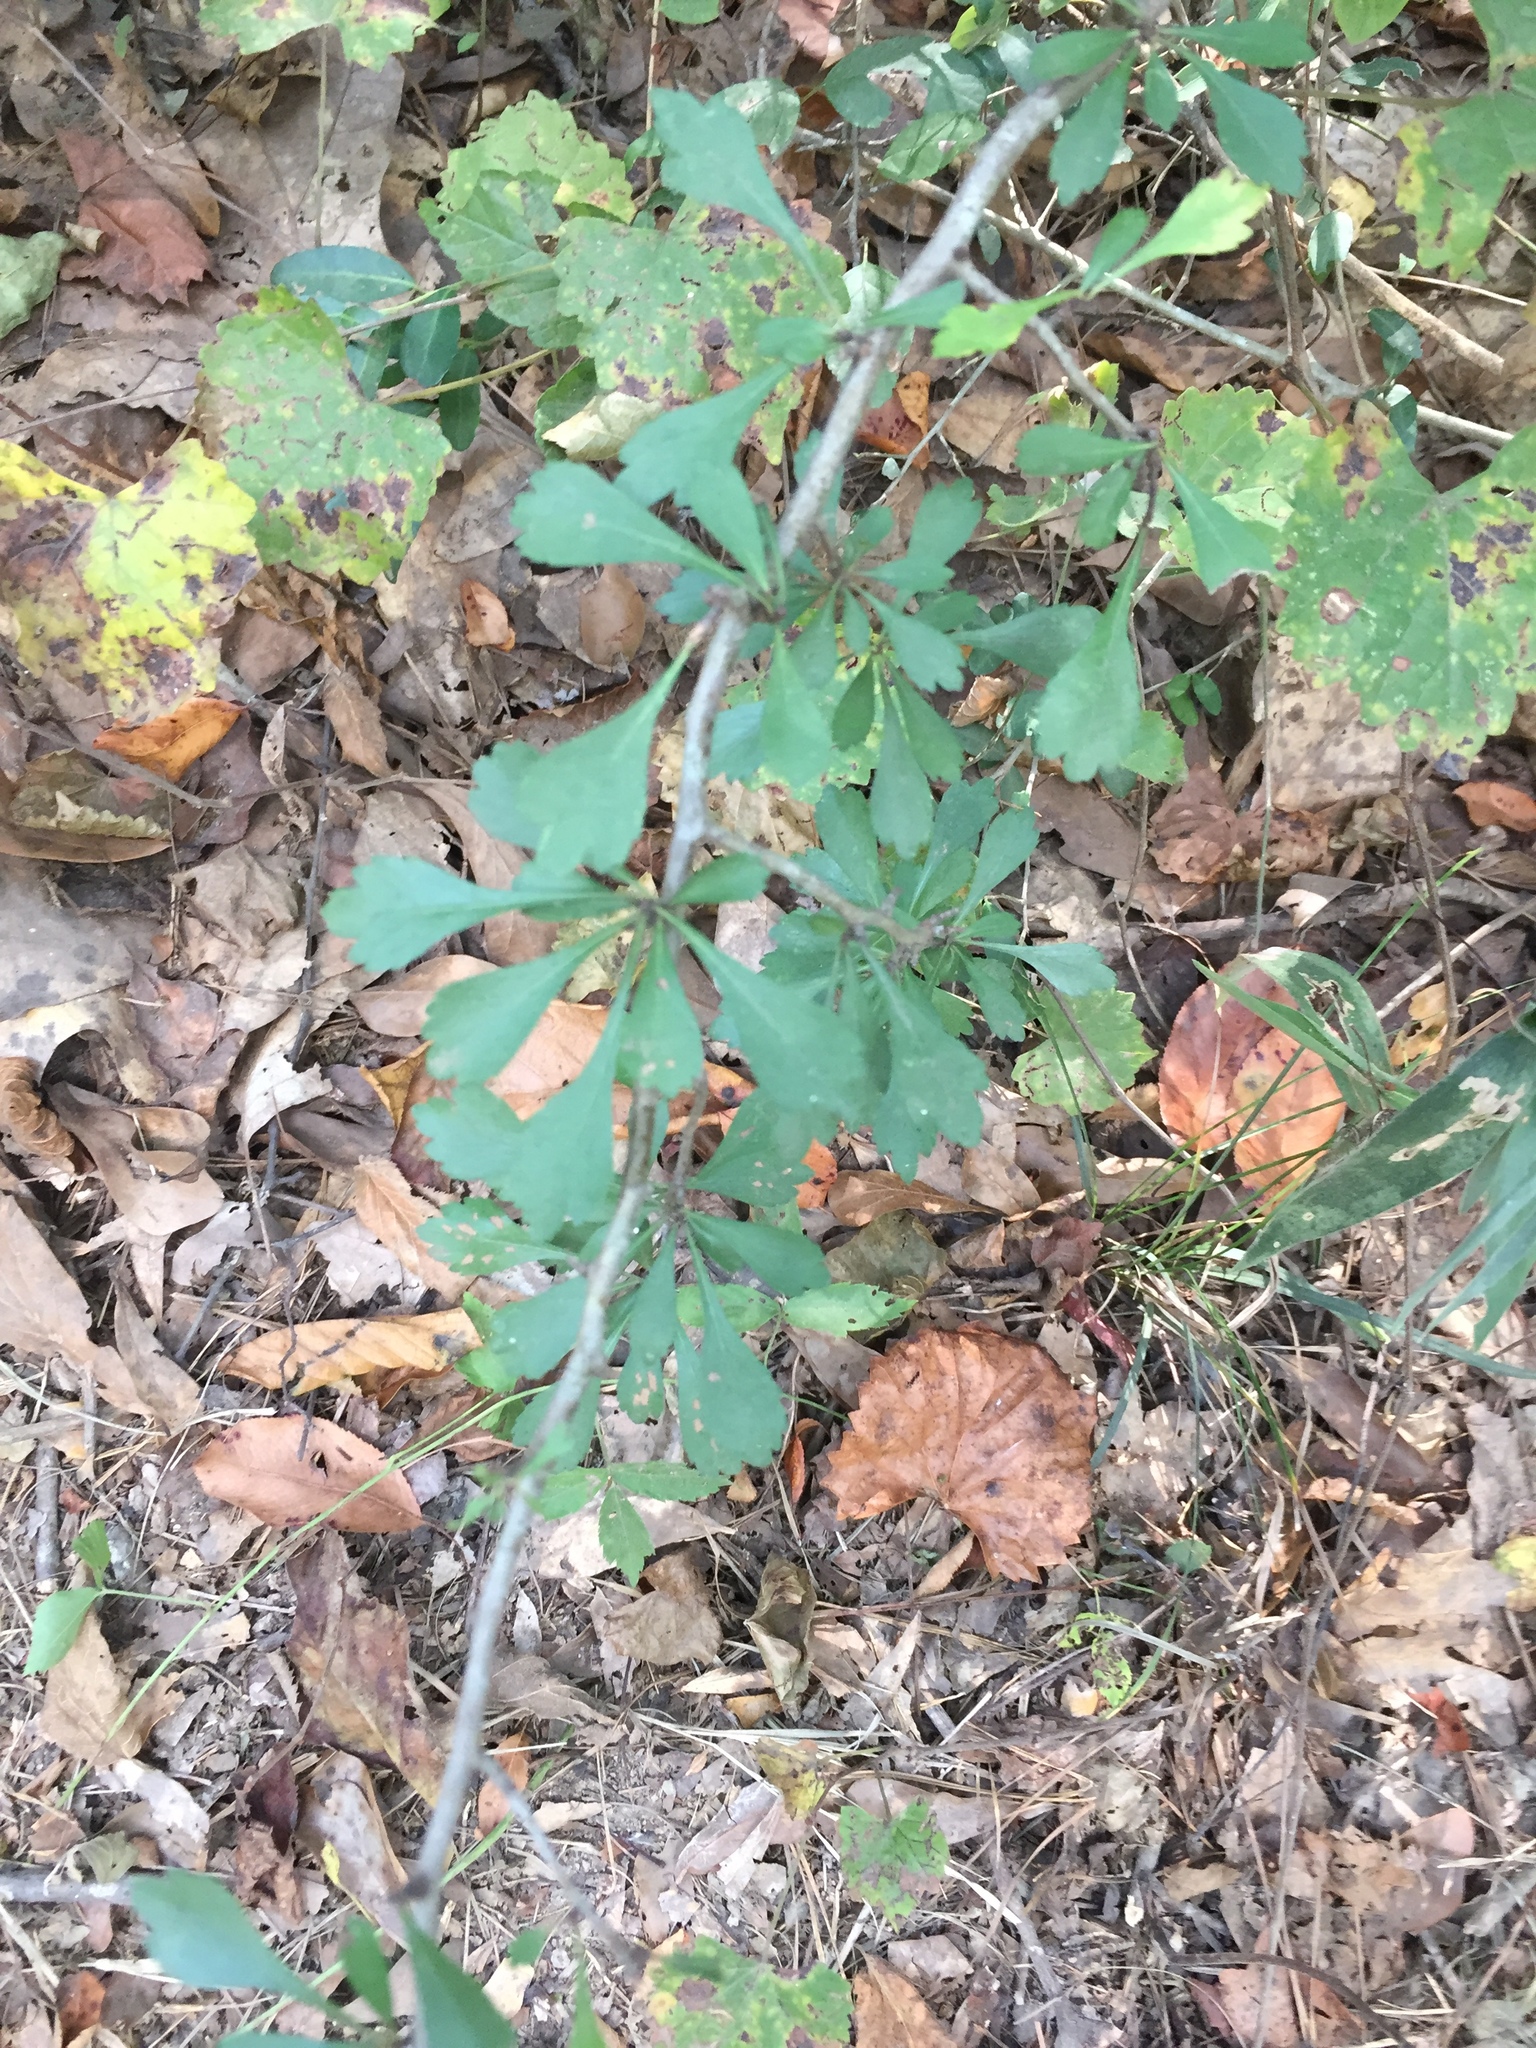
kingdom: Plantae
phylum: Tracheophyta
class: Magnoliopsida
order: Rosales
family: Rosaceae
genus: Crataegus
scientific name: Crataegus spathulata
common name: Littlehip hawthorn
